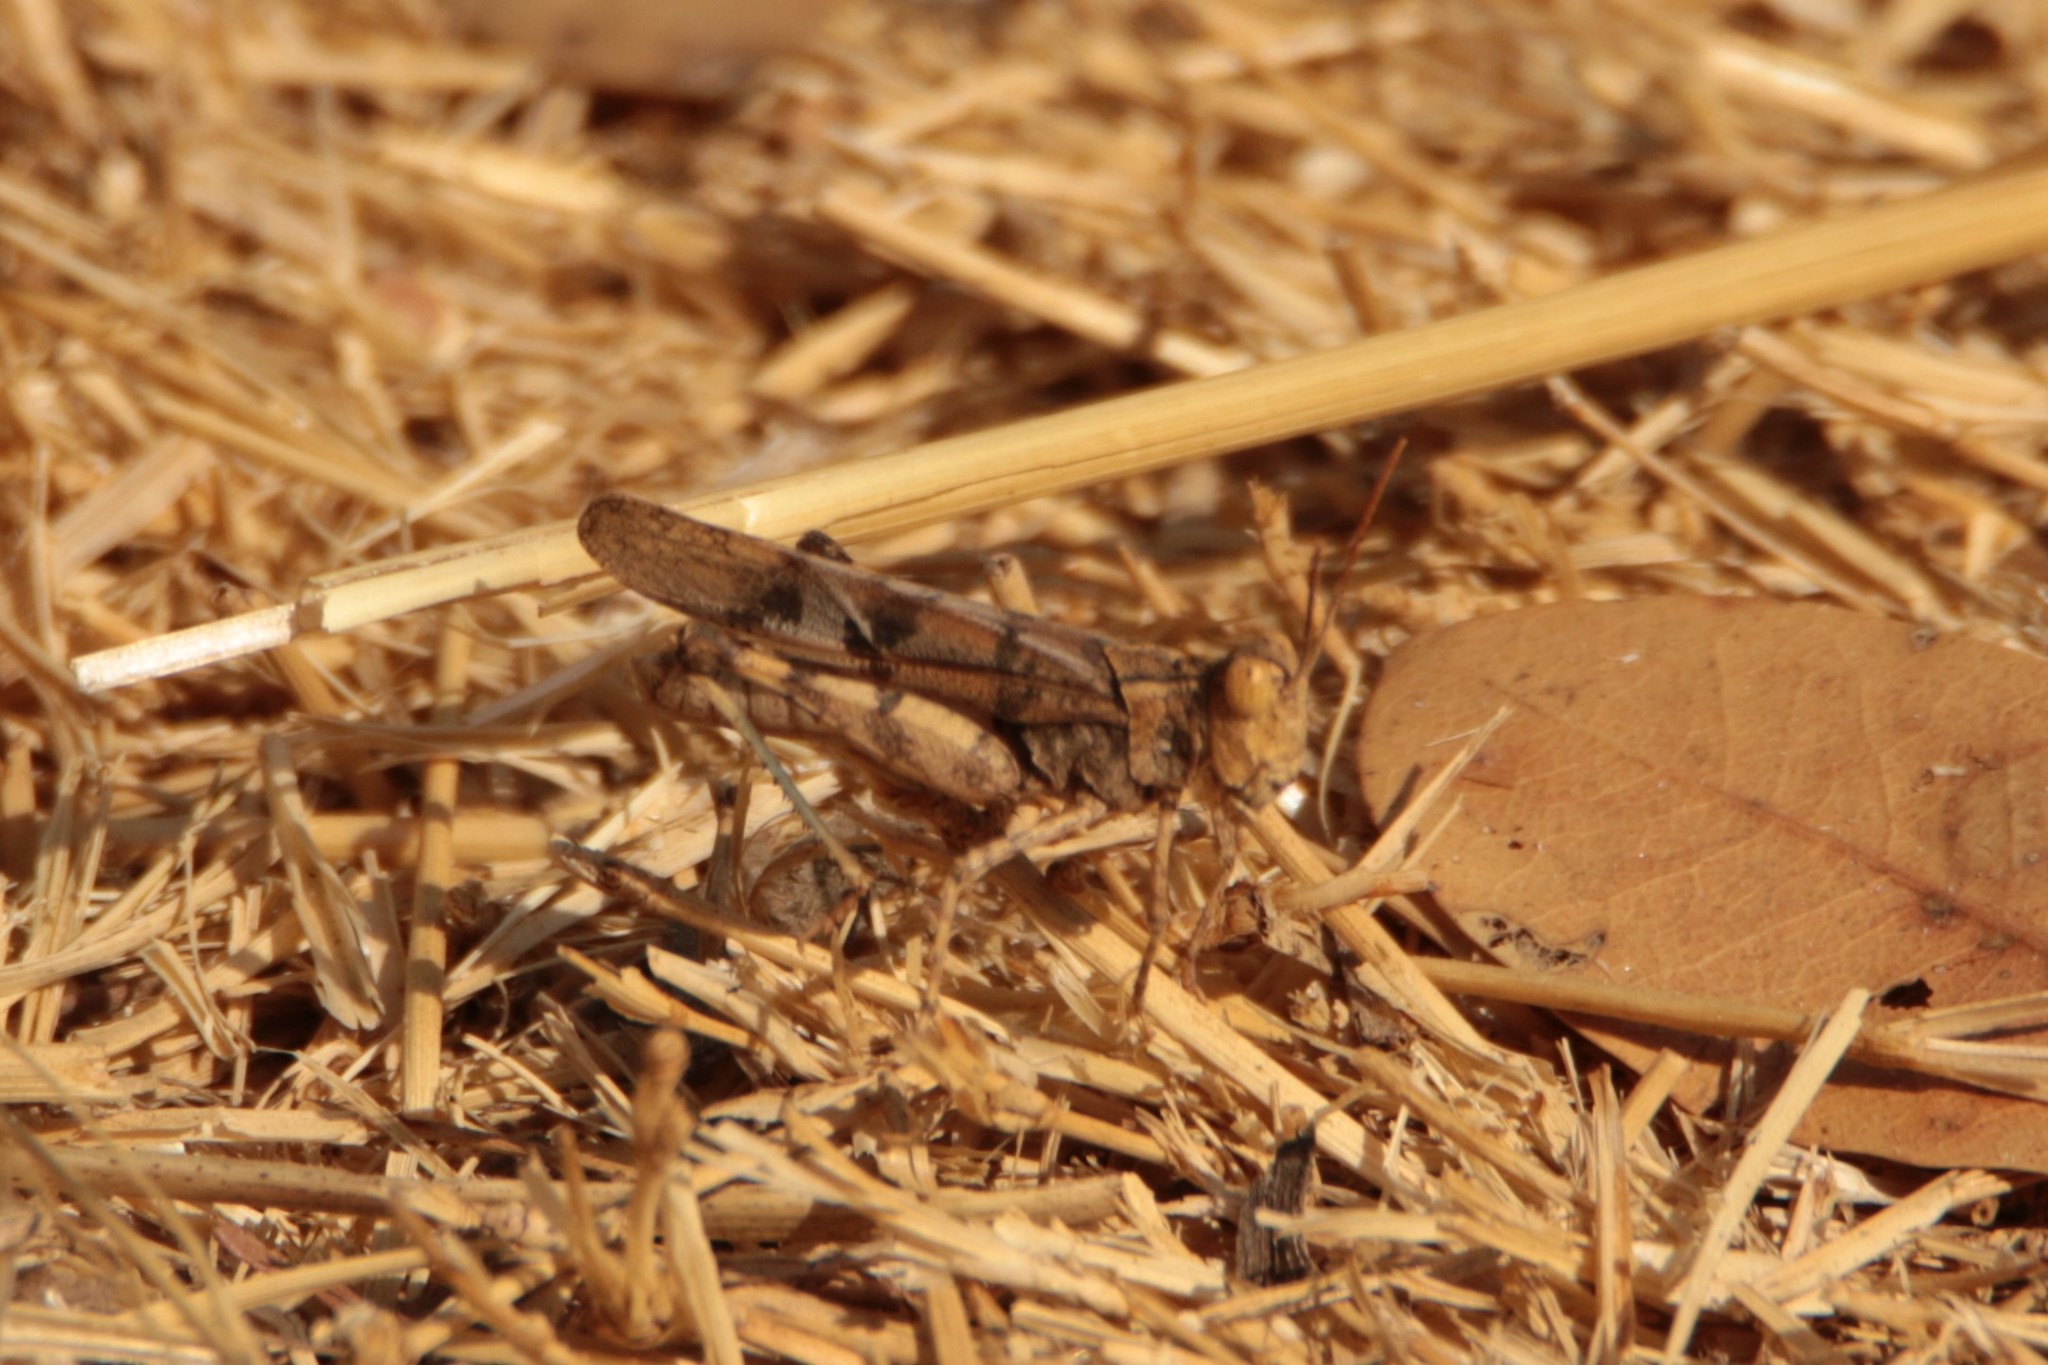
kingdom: Animalia
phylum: Arthropoda
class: Insecta
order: Orthoptera
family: Acrididae
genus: Dissosteira
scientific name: Dissosteira pictipennis
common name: California rose-winged grasshopper
